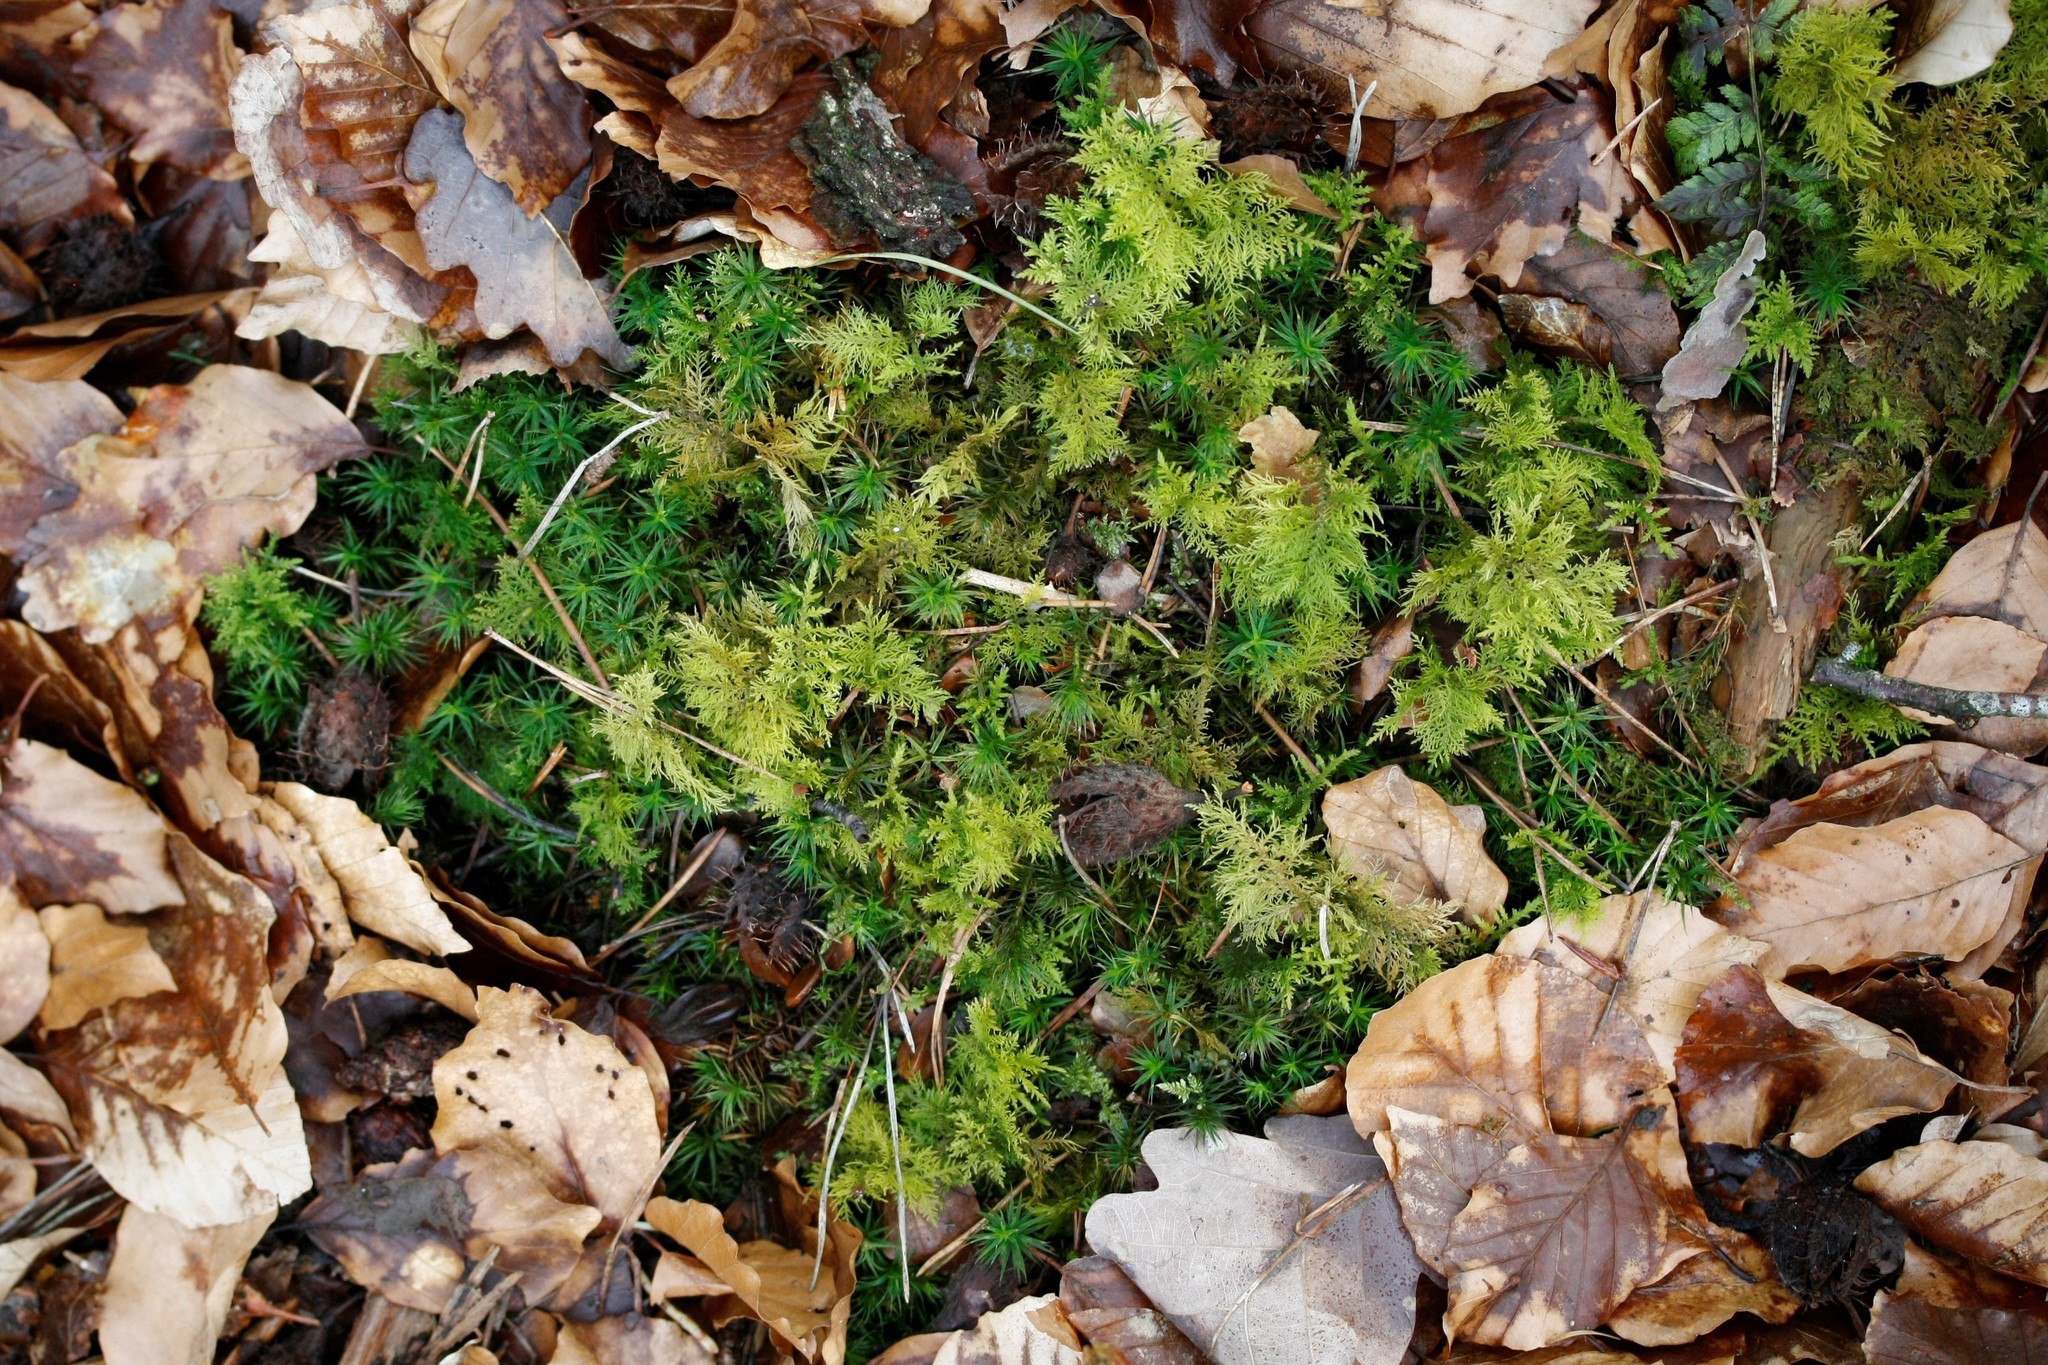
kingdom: Plantae
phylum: Bryophyta
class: Bryopsida
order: Hypnales
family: Thuidiaceae
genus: Thuidium
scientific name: Thuidium tamariscinum
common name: Common tamarisk-moss
